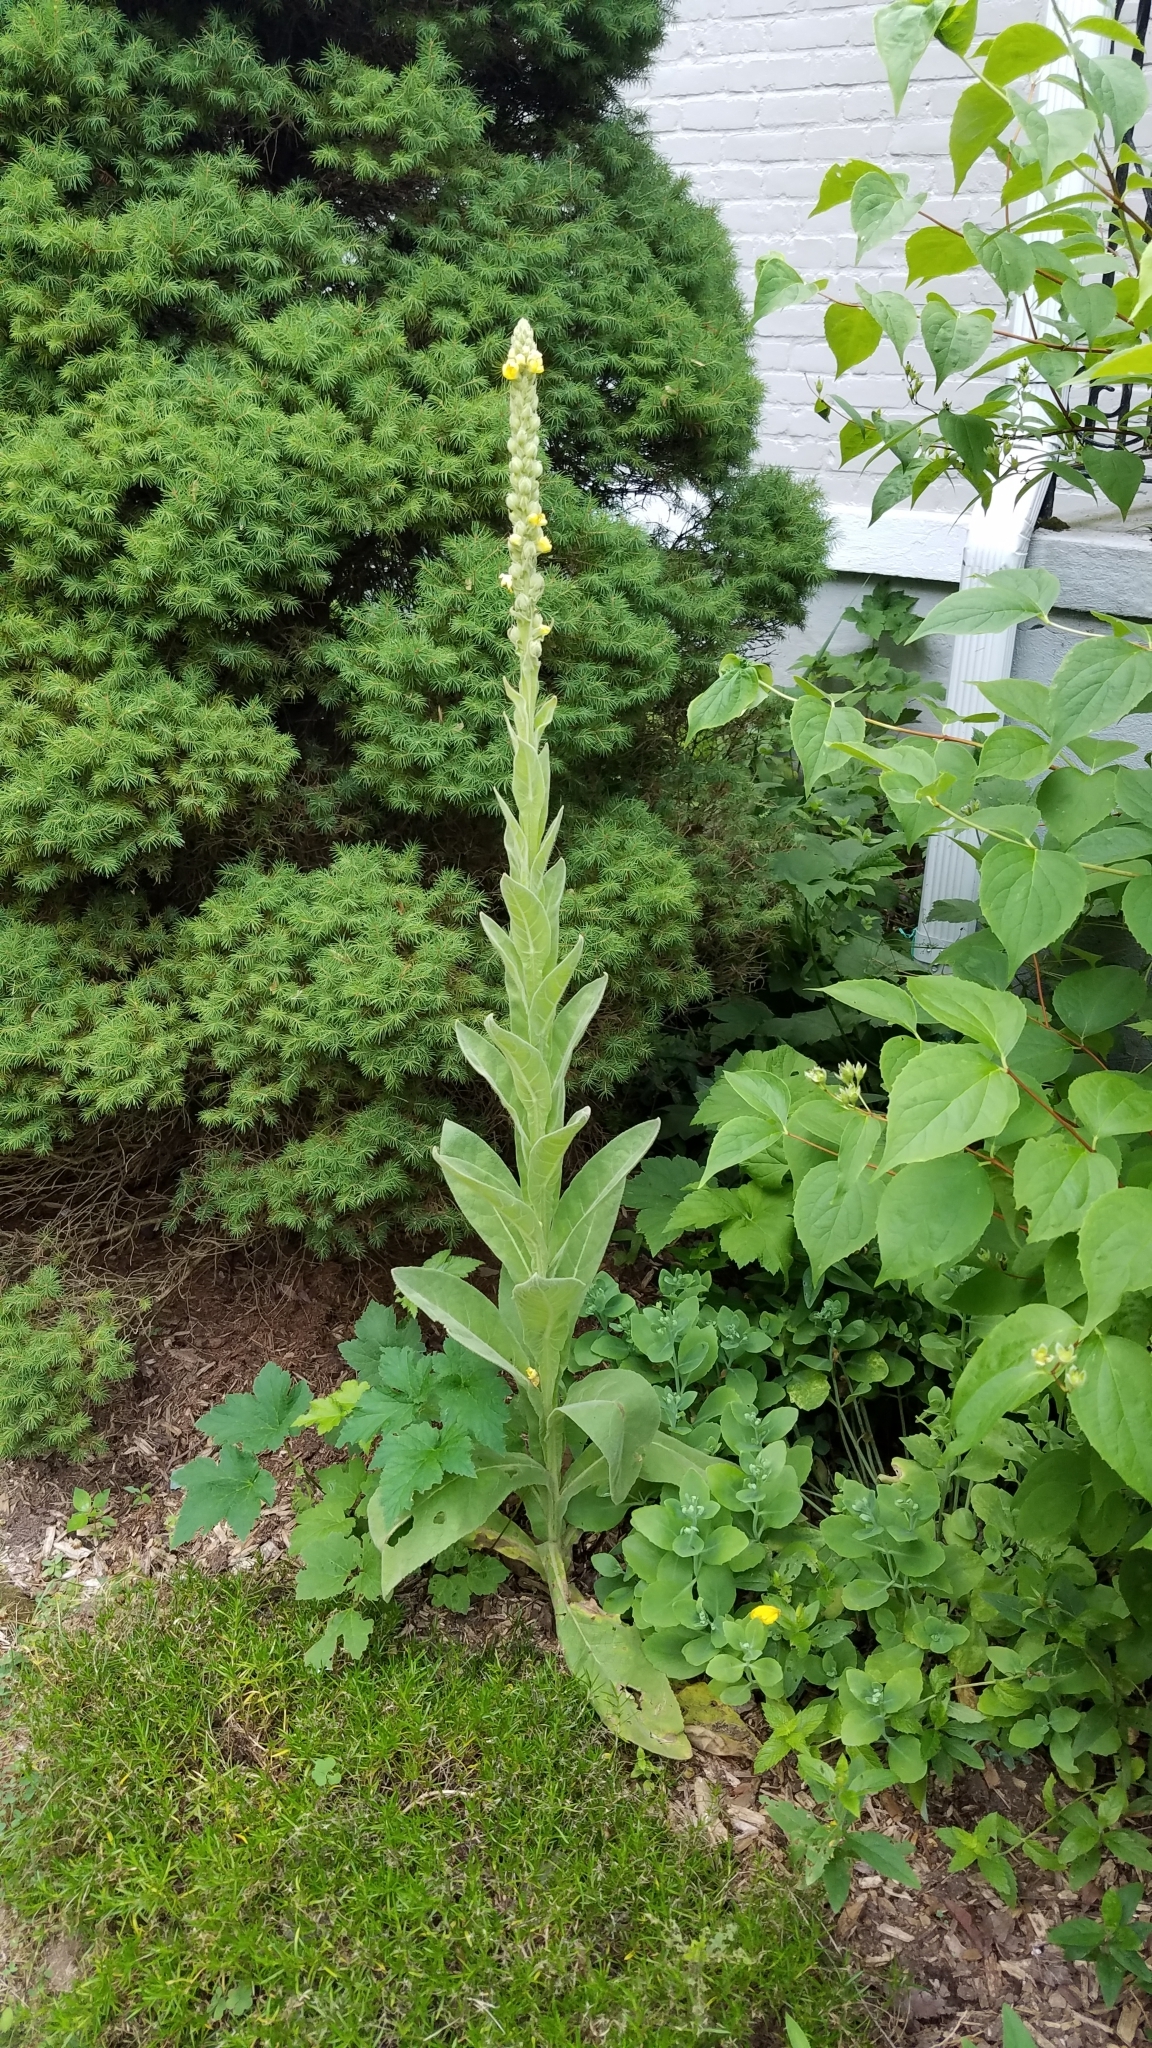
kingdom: Plantae
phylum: Tracheophyta
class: Magnoliopsida
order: Lamiales
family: Scrophulariaceae
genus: Verbascum
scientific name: Verbascum thapsus
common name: Common mullein
